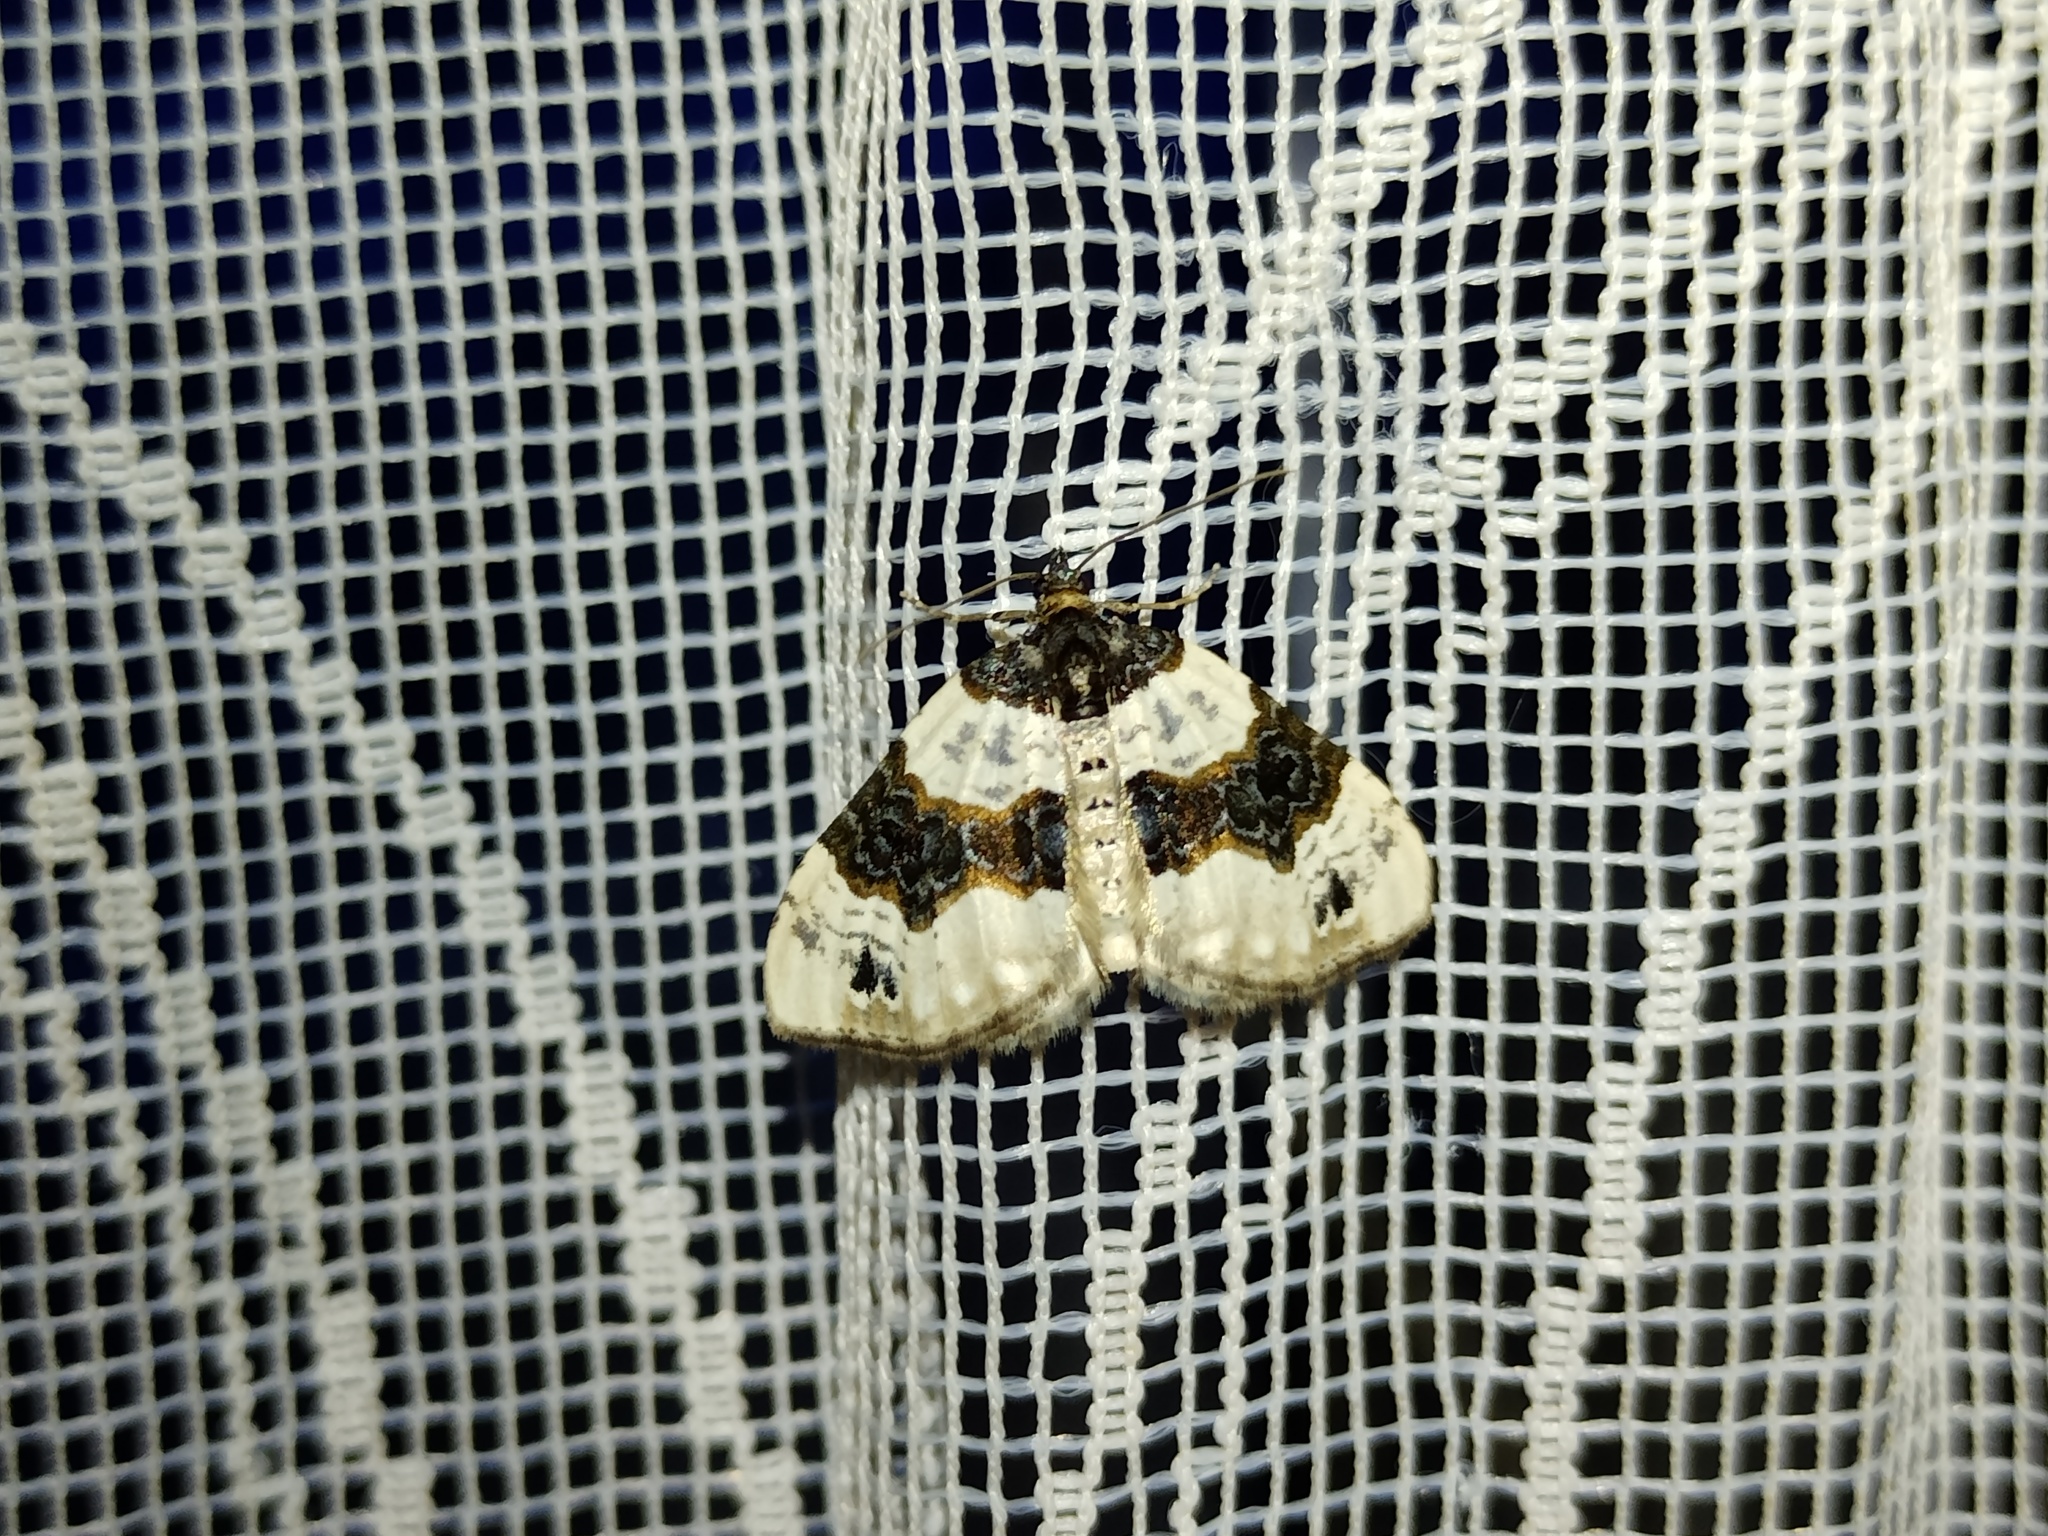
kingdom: Animalia
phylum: Arthropoda
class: Insecta
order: Lepidoptera
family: Geometridae
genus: Cosmorhoe
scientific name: Cosmorhoe ocellata
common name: Purple bar
